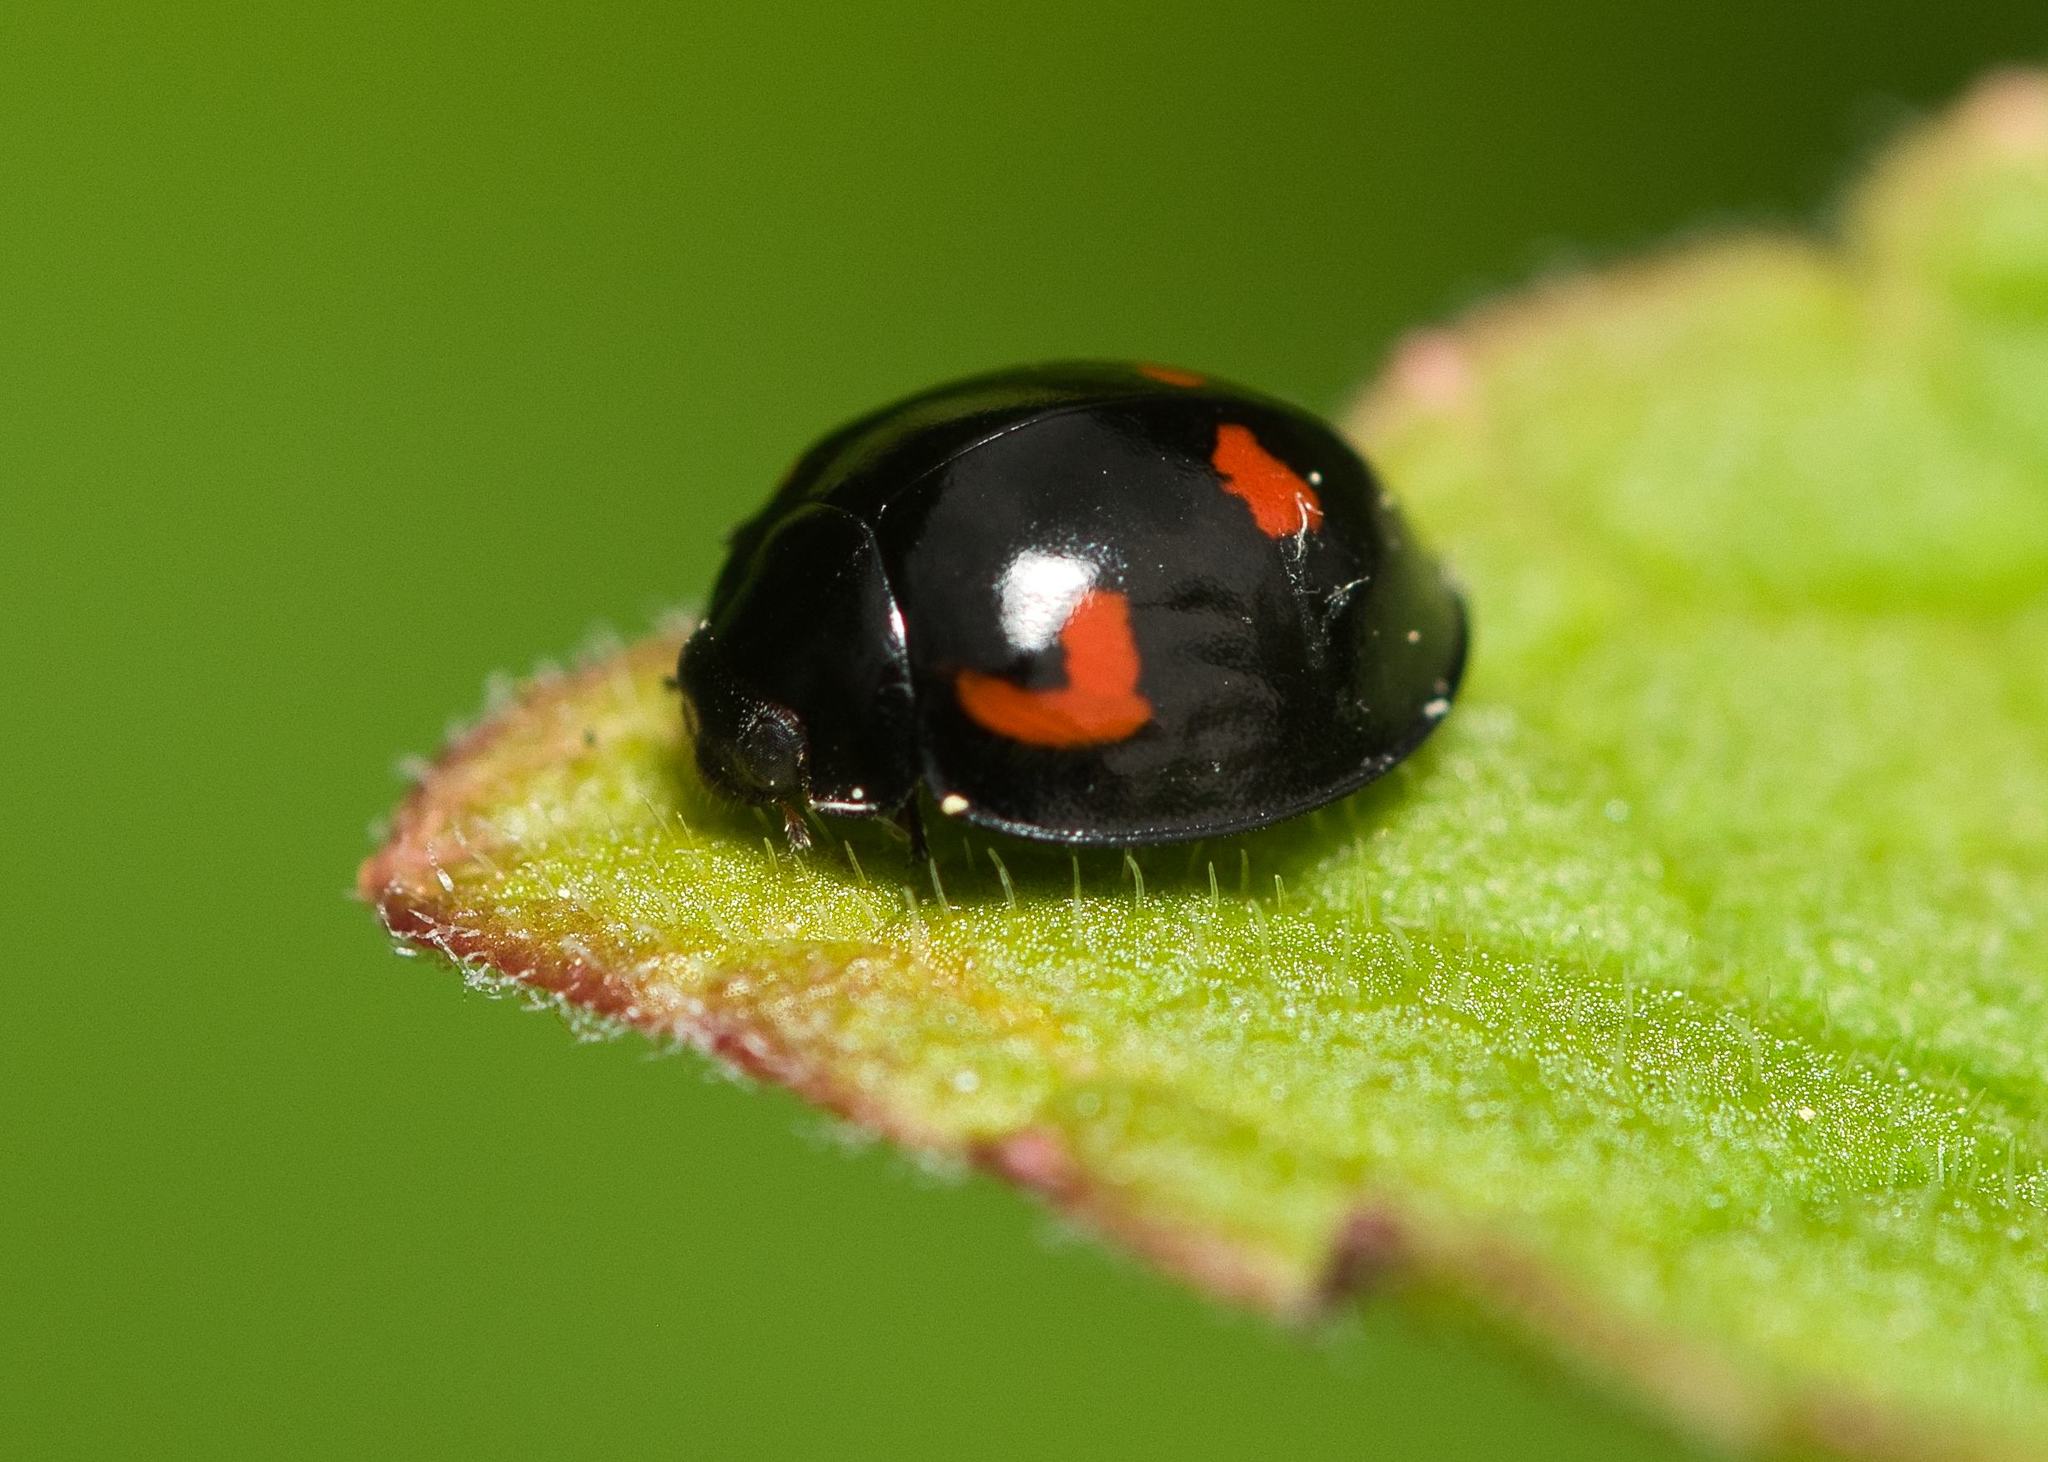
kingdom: Animalia
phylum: Arthropoda
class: Insecta
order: Coleoptera
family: Coccinellidae
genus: Brumus
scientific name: Brumus quadripustulatus
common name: Ladybird beetle
